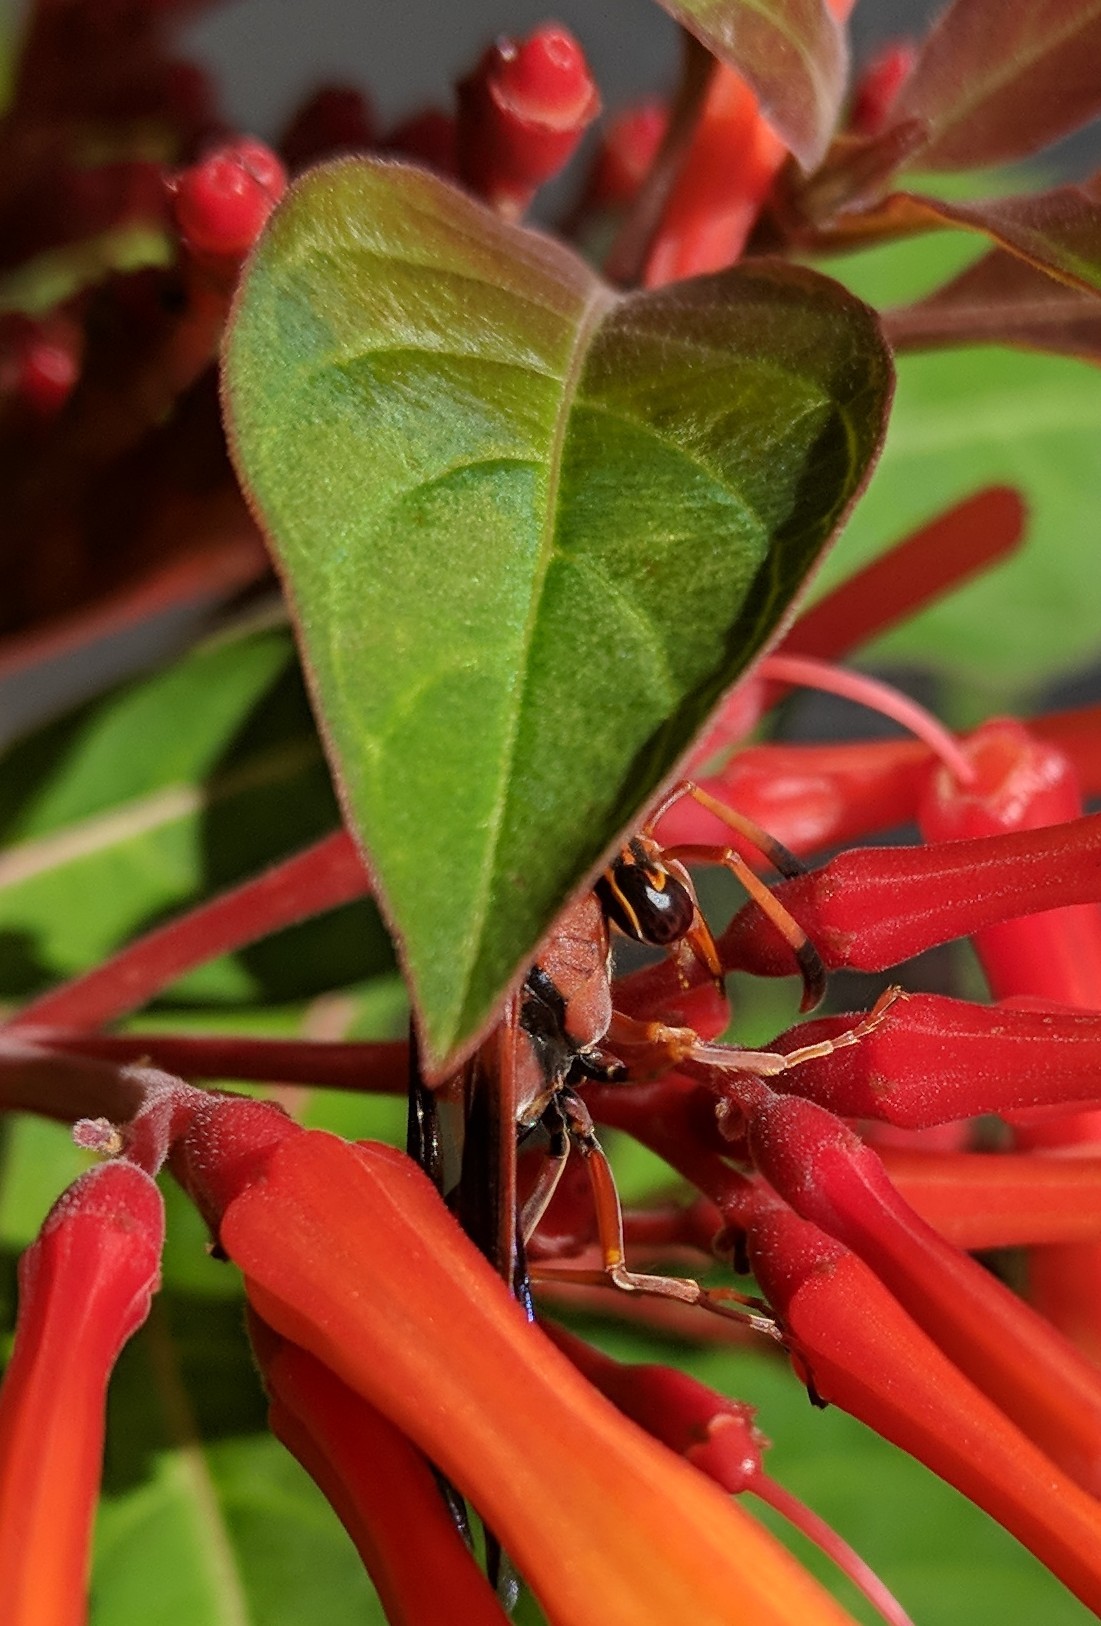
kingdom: Animalia
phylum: Arthropoda
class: Insecta
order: Hymenoptera
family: Eumenidae
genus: Zeta
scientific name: Zeta argillaceum
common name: Potter wasp
